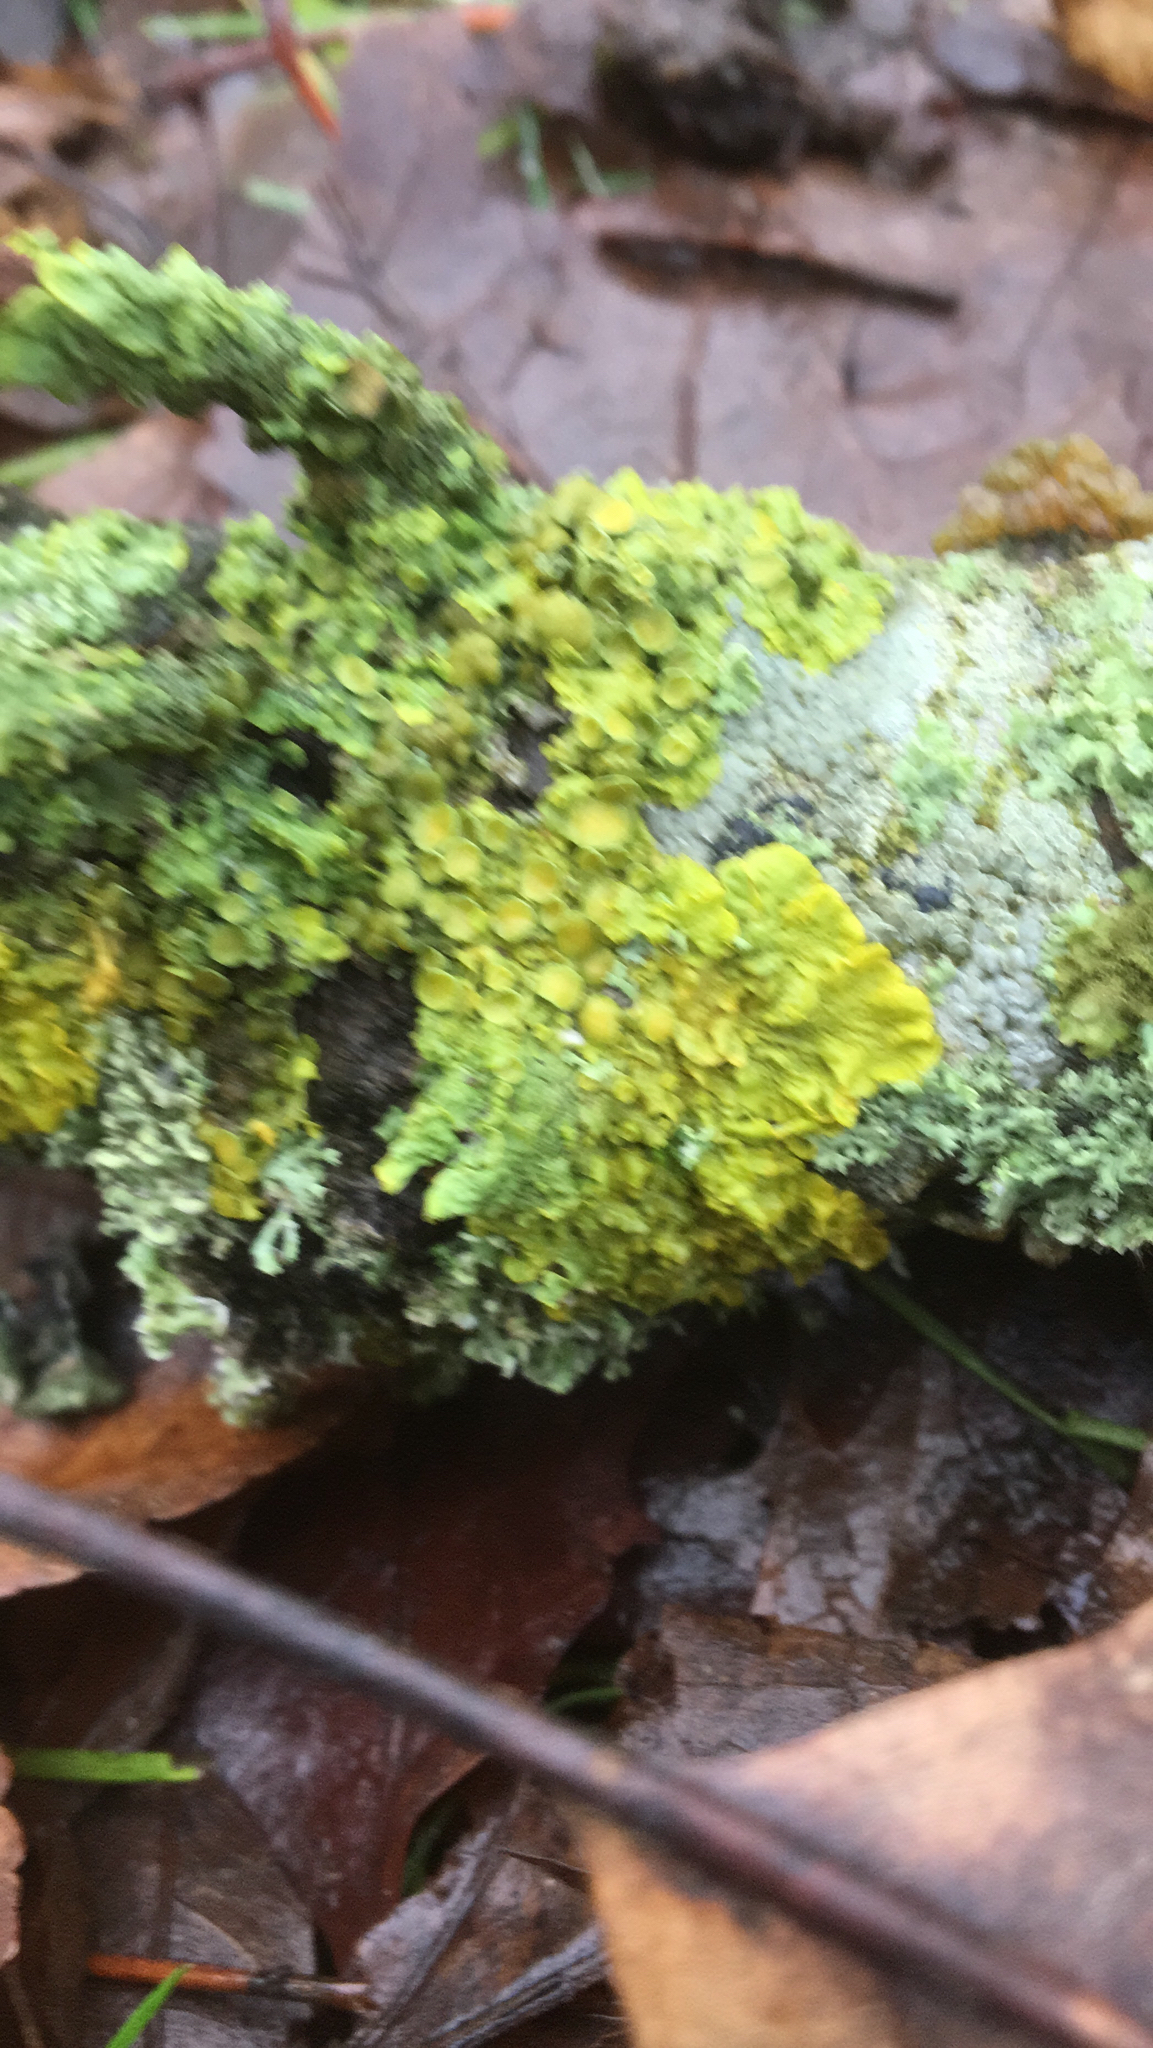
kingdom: Fungi
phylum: Ascomycota
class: Lecanoromycetes
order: Teloschistales
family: Teloschistaceae
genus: Xanthoria
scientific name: Xanthoria parietina
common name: Common orange lichen
